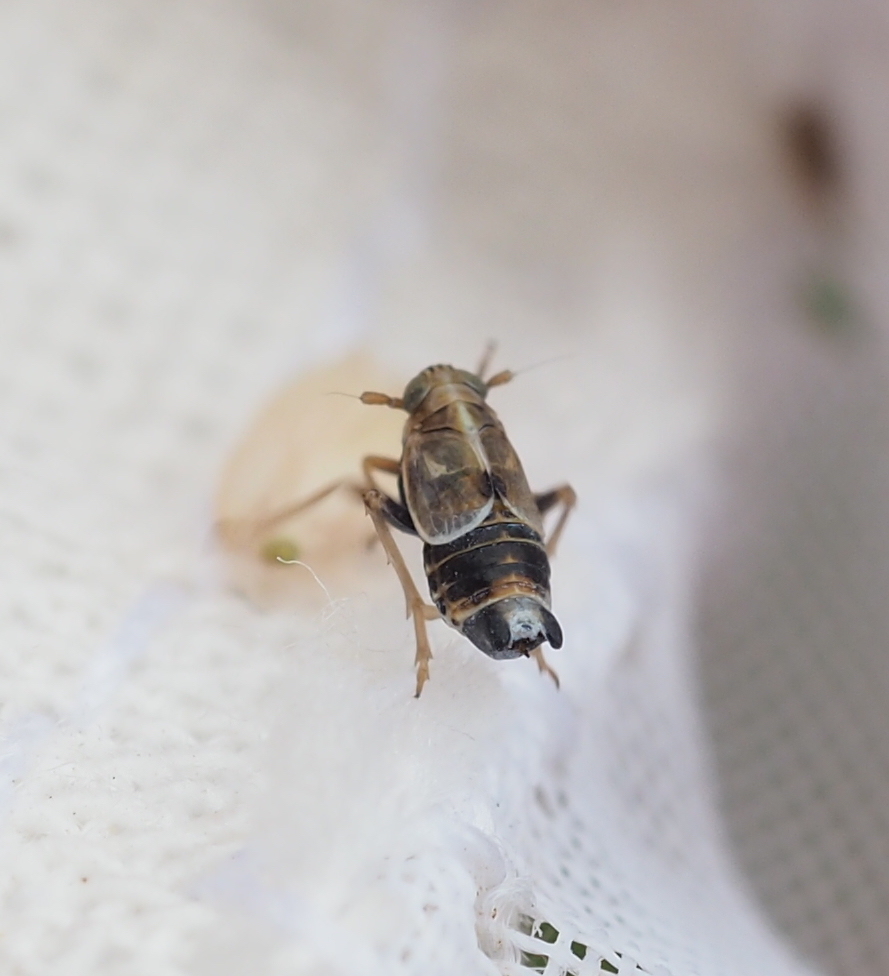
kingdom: Animalia
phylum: Arthropoda
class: Insecta
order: Hemiptera
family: Delphacidae
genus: Dicranotropis
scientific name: Dicranotropis hamata
